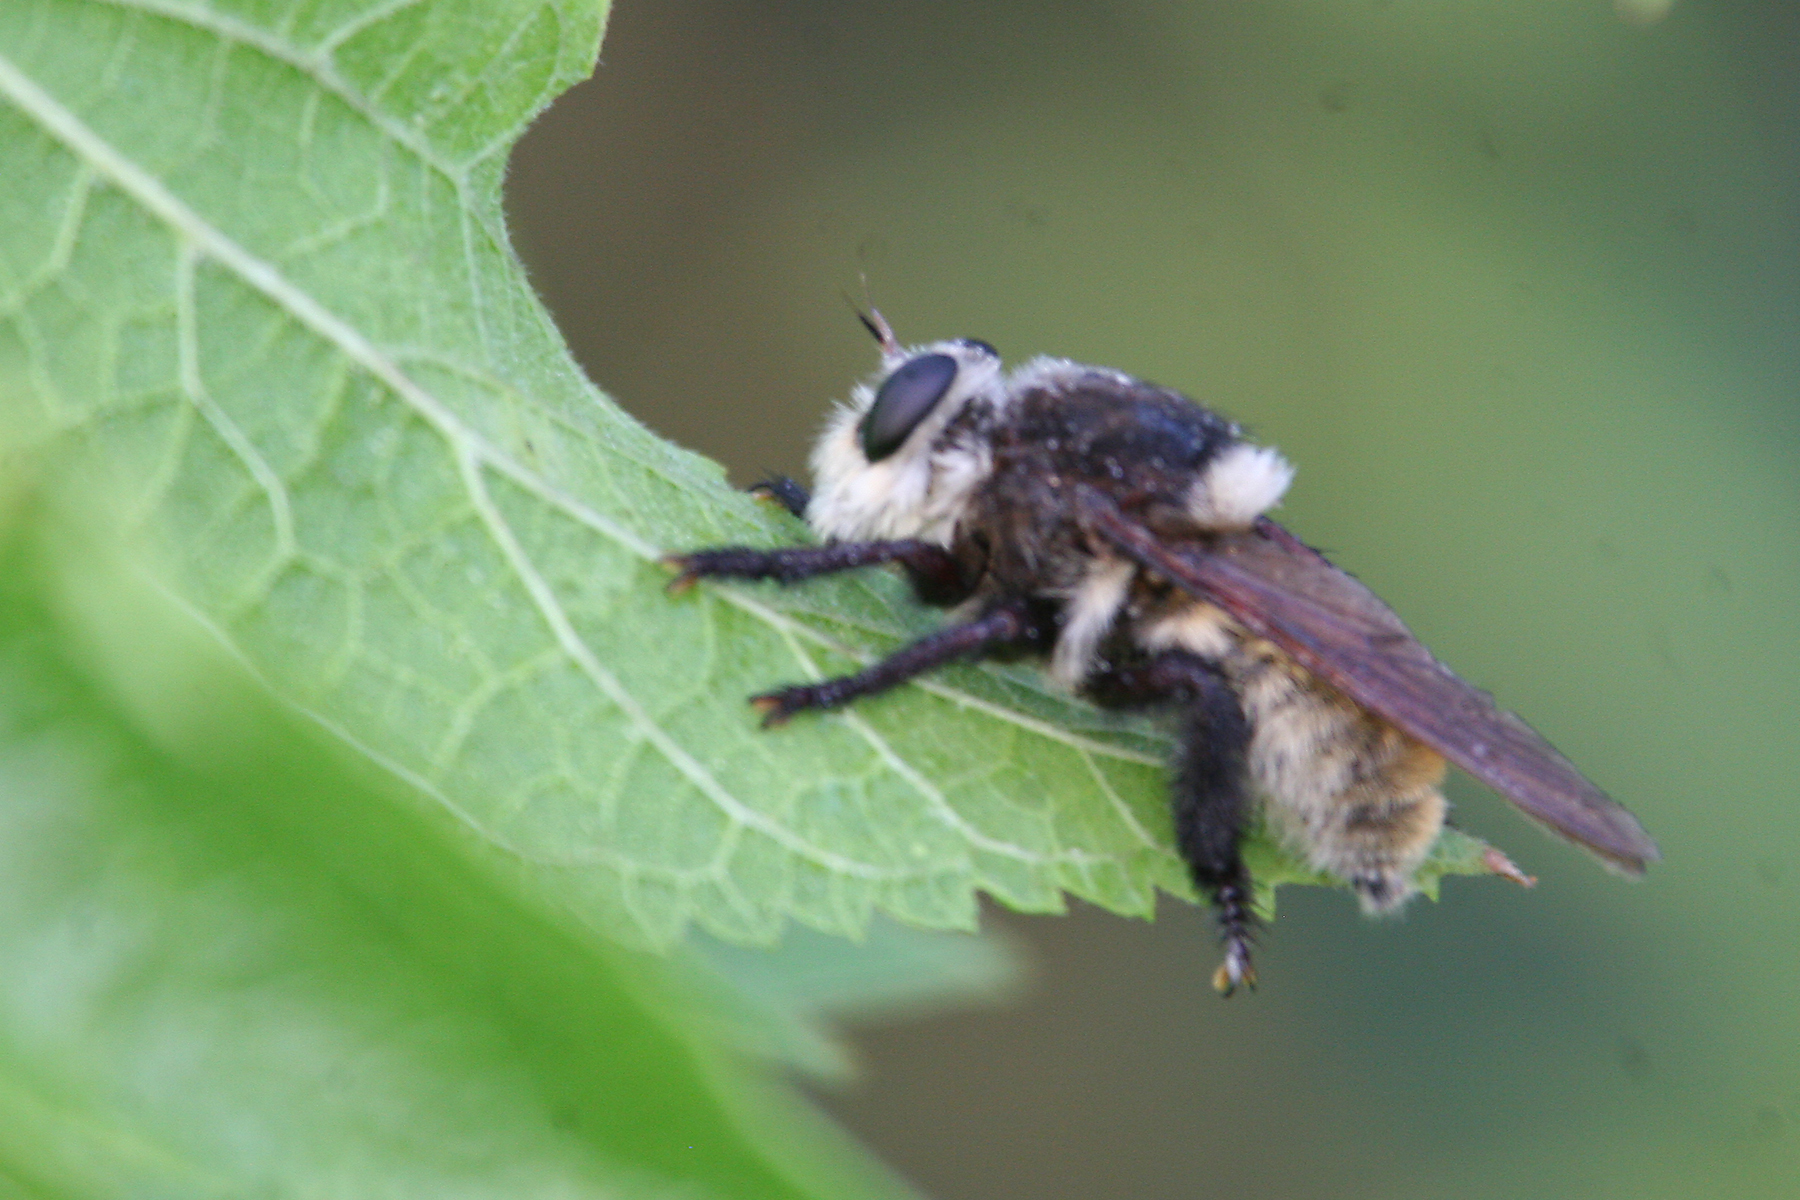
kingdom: Animalia
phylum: Arthropoda
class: Insecta
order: Diptera
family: Asilidae
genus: Mallophora
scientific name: Mallophora fautrix
